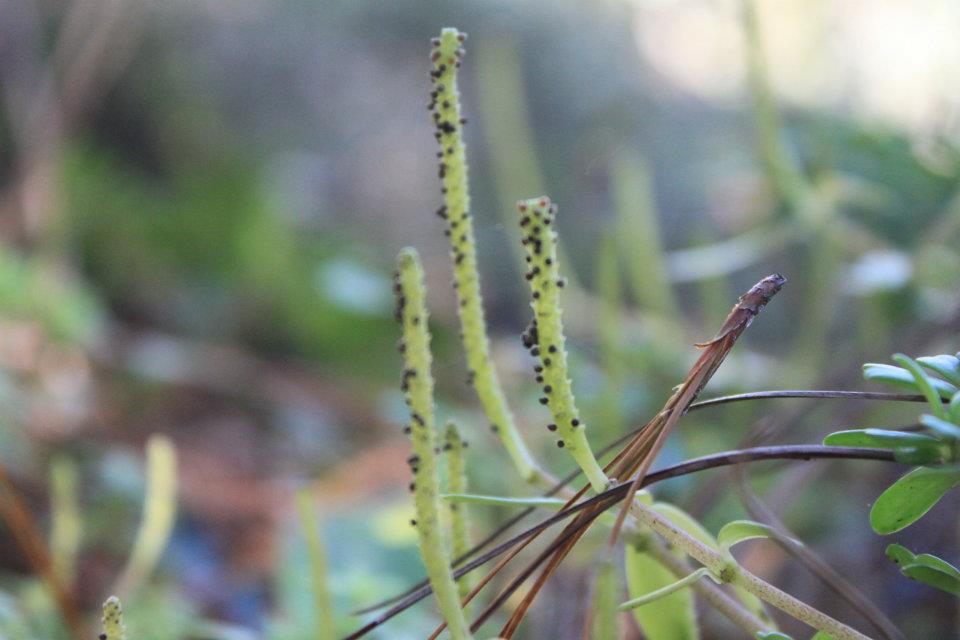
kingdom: Plantae
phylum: Tracheophyta
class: Magnoliopsida
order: Piperales
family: Piperaceae
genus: Peperomia
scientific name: Peperomia leptophylla
